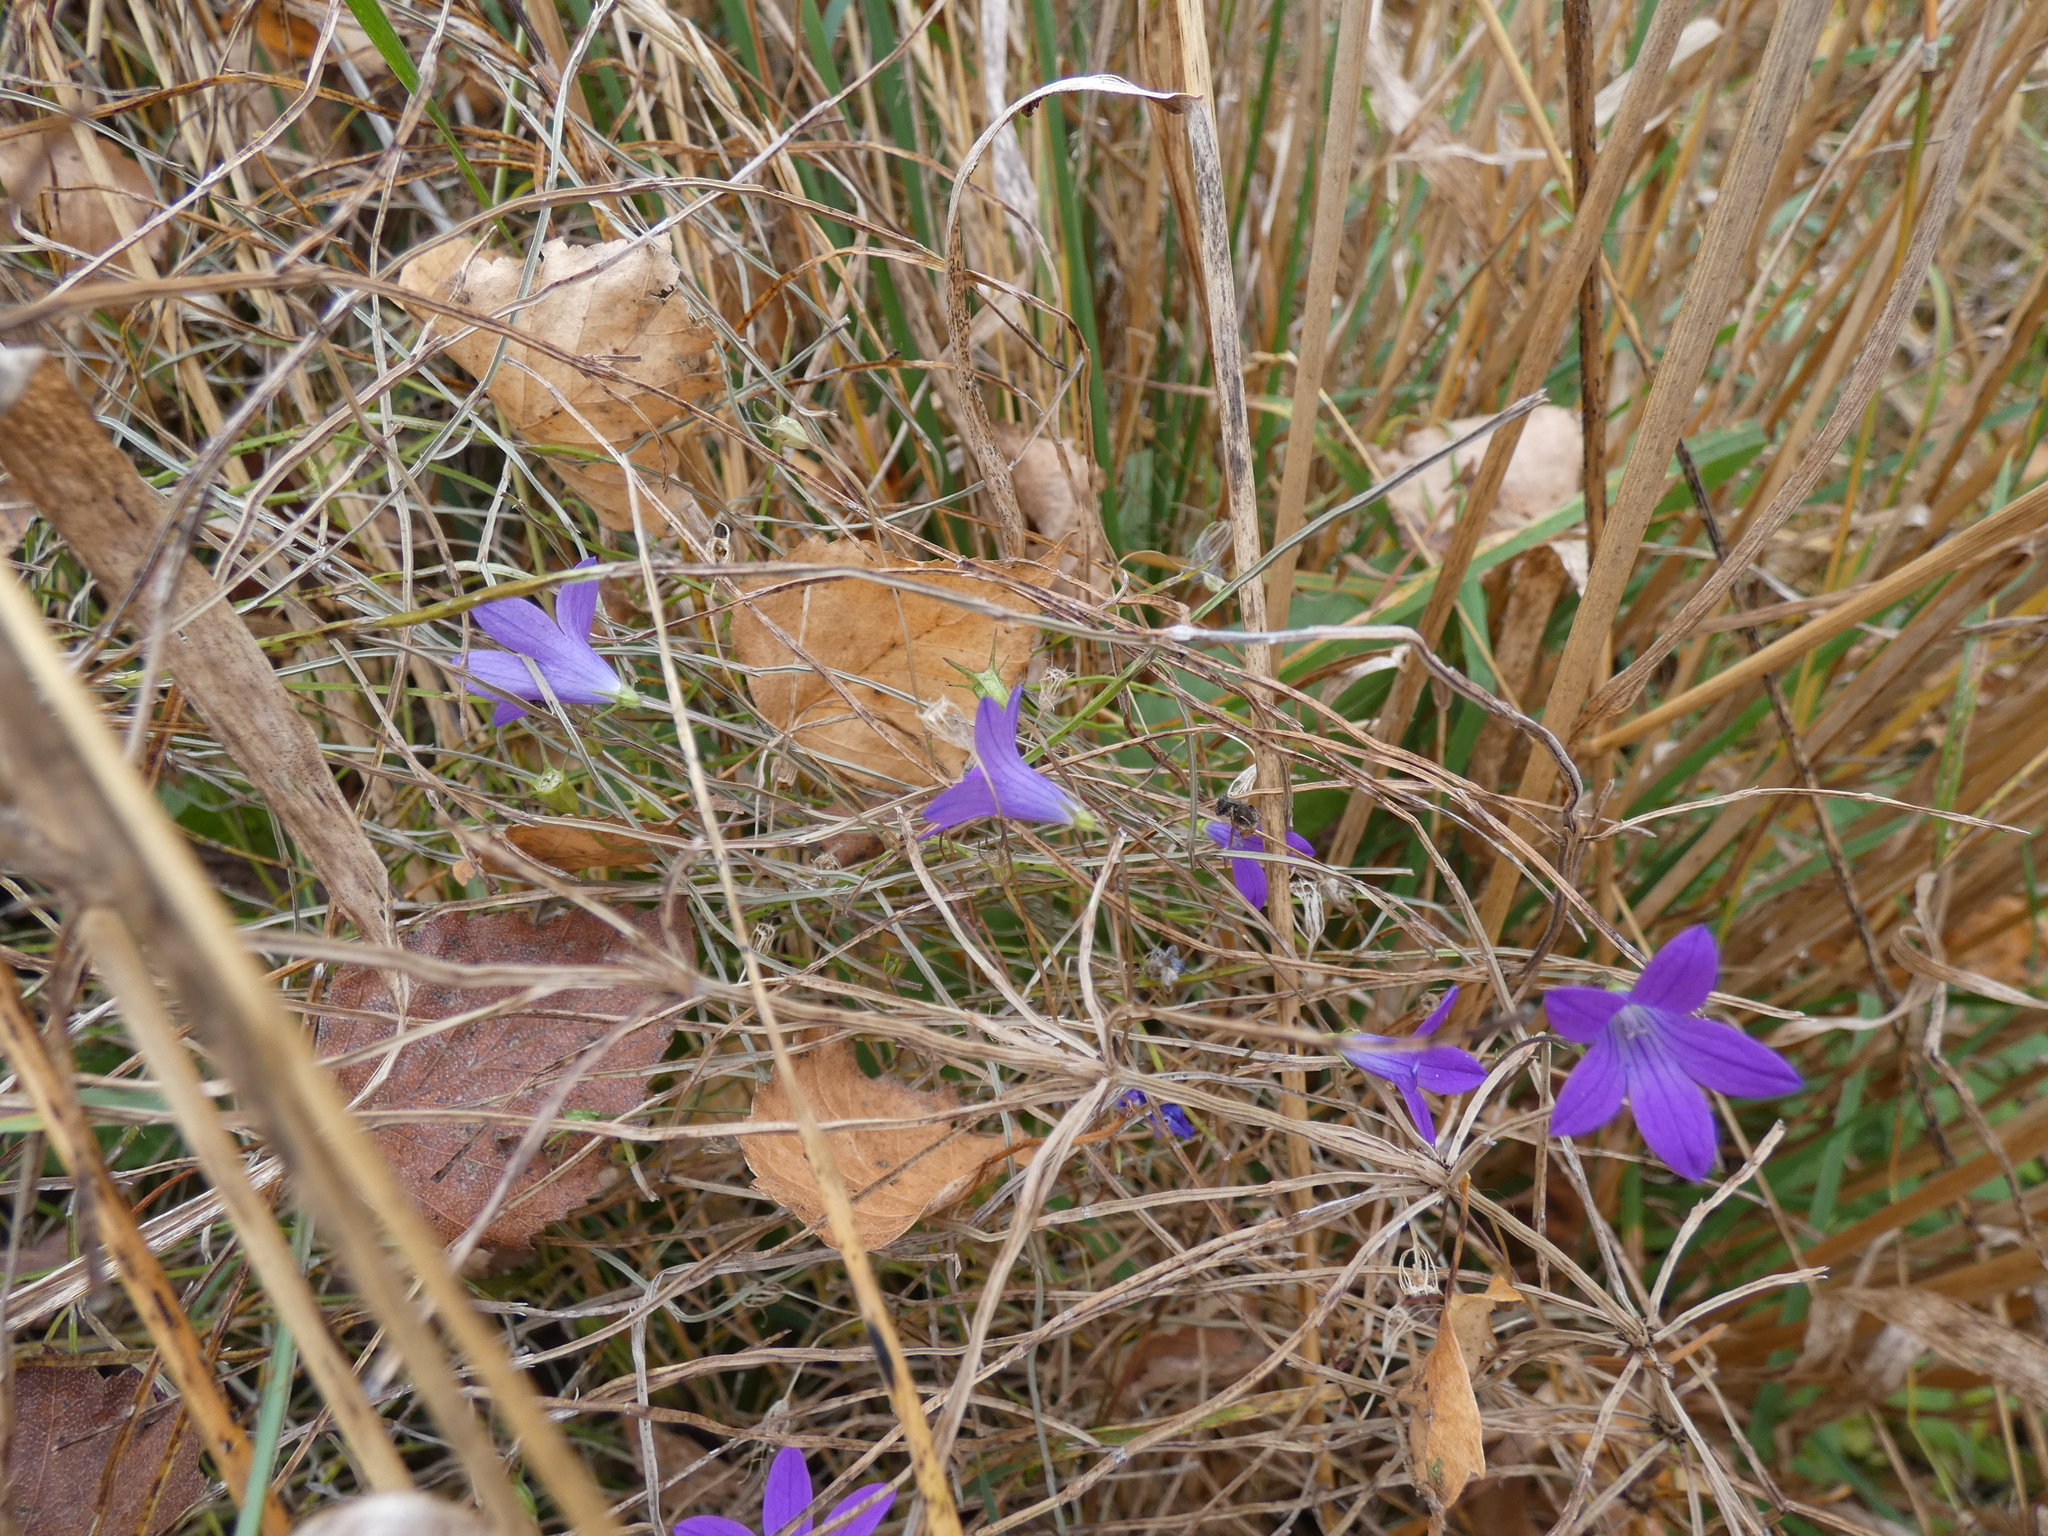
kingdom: Plantae
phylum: Tracheophyta
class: Magnoliopsida
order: Asterales
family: Campanulaceae
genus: Campanula
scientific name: Campanula patula
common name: Spreading bellflower
